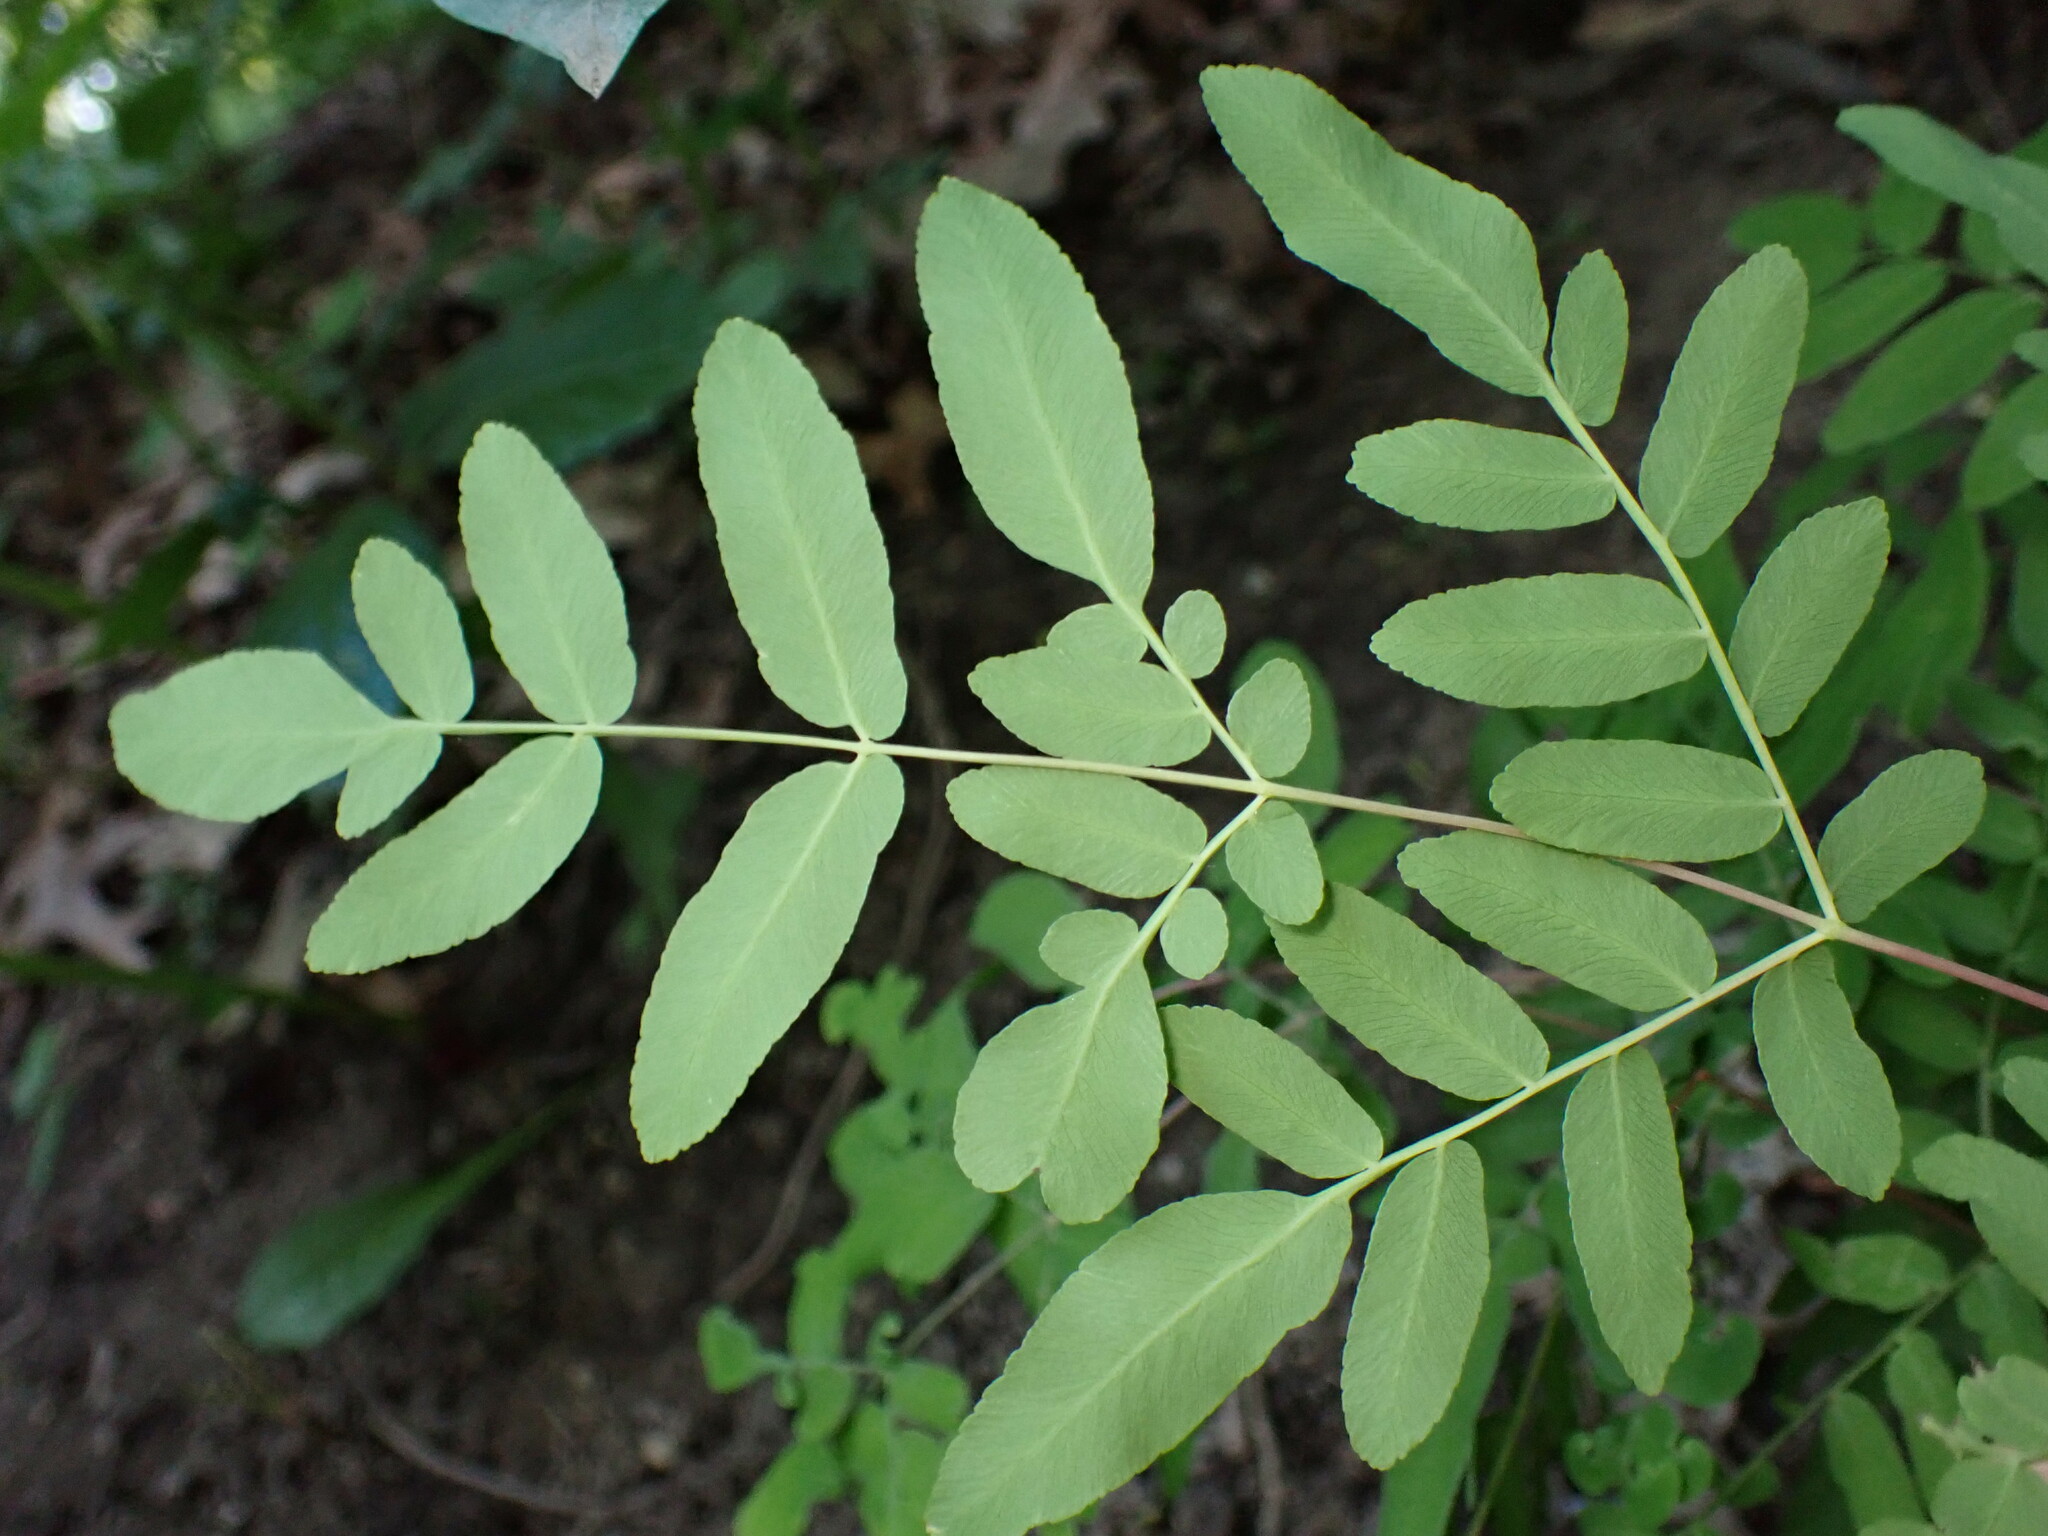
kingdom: Plantae
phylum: Tracheophyta
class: Polypodiopsida
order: Osmundales
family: Osmundaceae
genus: Osmunda
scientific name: Osmunda spectabilis
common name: American royal fern
